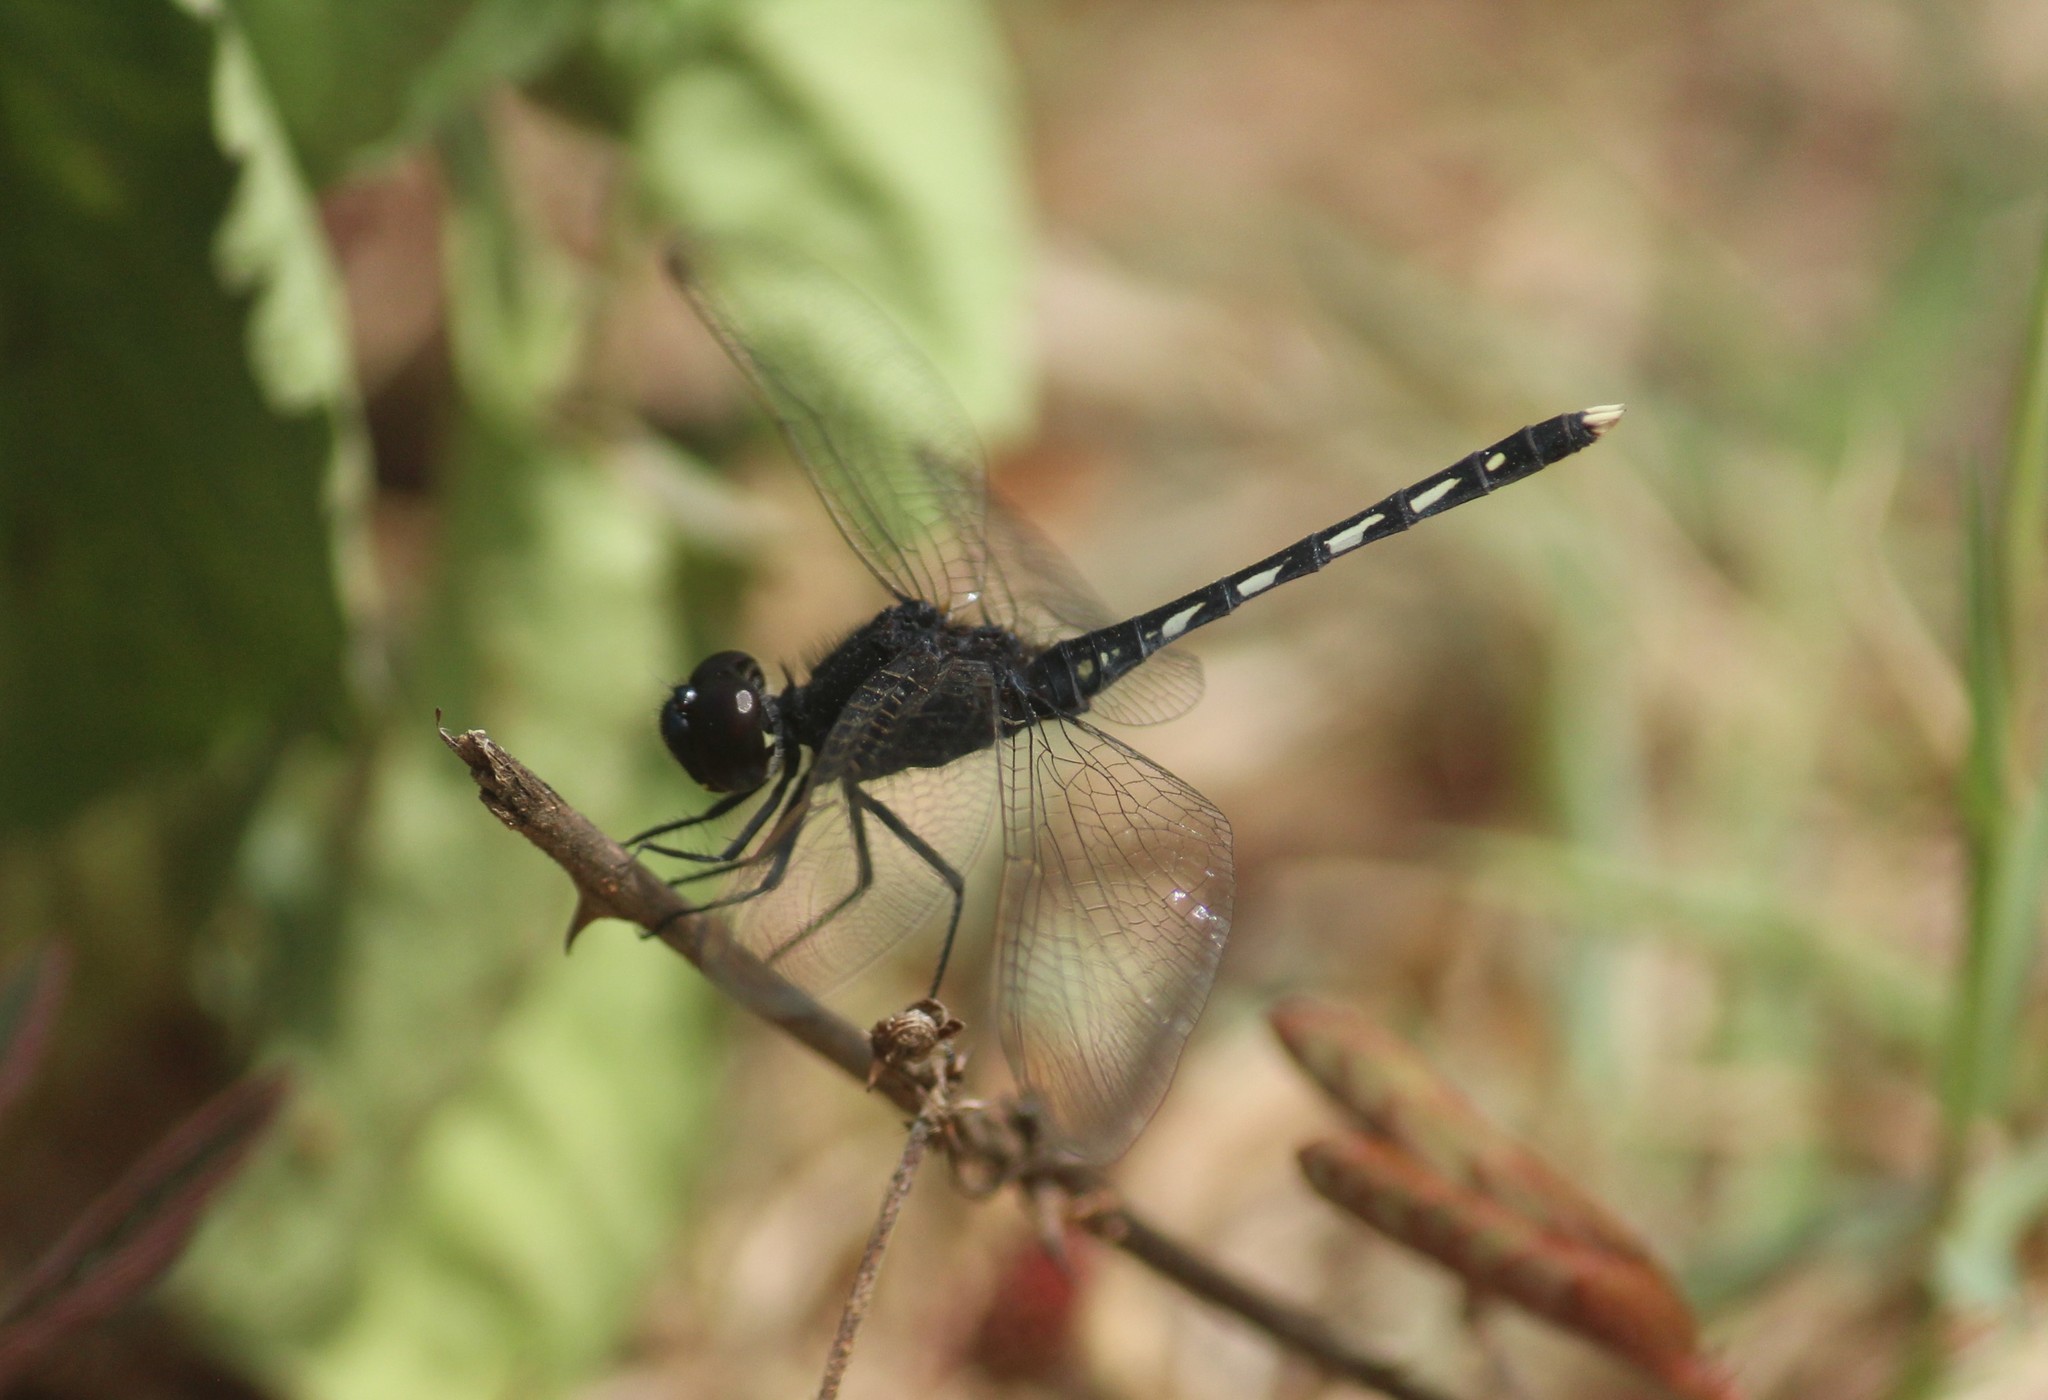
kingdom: Animalia
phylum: Arthropoda
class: Insecta
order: Odonata
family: Libellulidae
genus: Diplacodes
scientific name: Diplacodes lefebvrii
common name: Black percher
